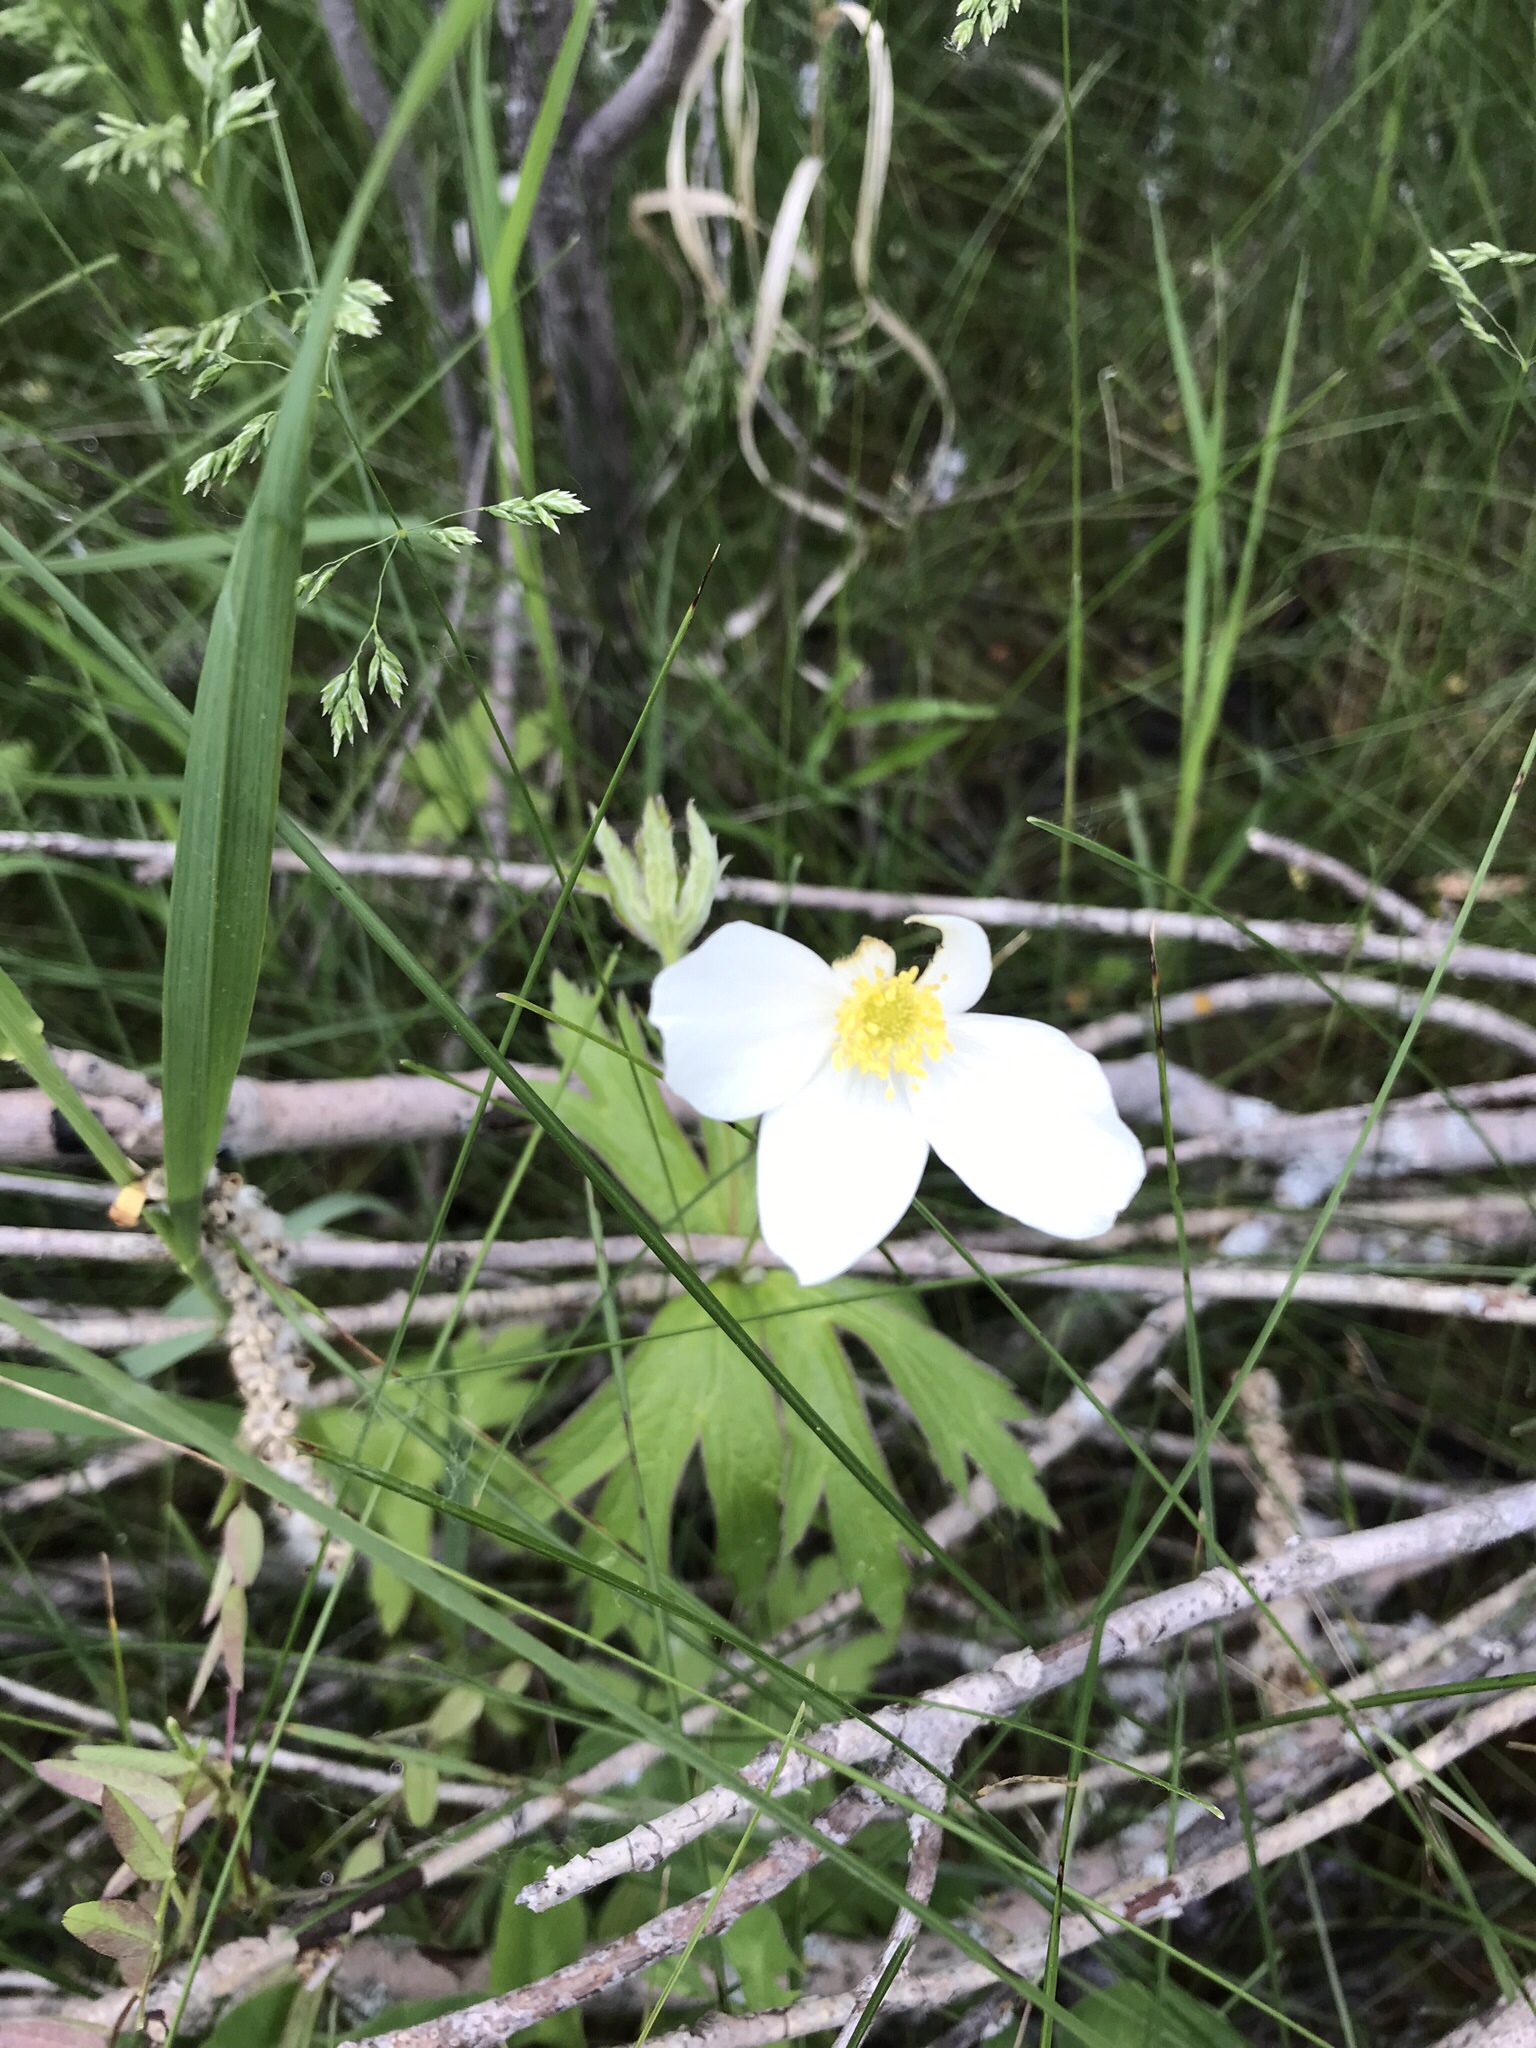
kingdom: Plantae
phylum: Tracheophyta
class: Magnoliopsida
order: Ranunculales
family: Ranunculaceae
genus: Anemonastrum
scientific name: Anemonastrum canadense
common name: Canada anemone
